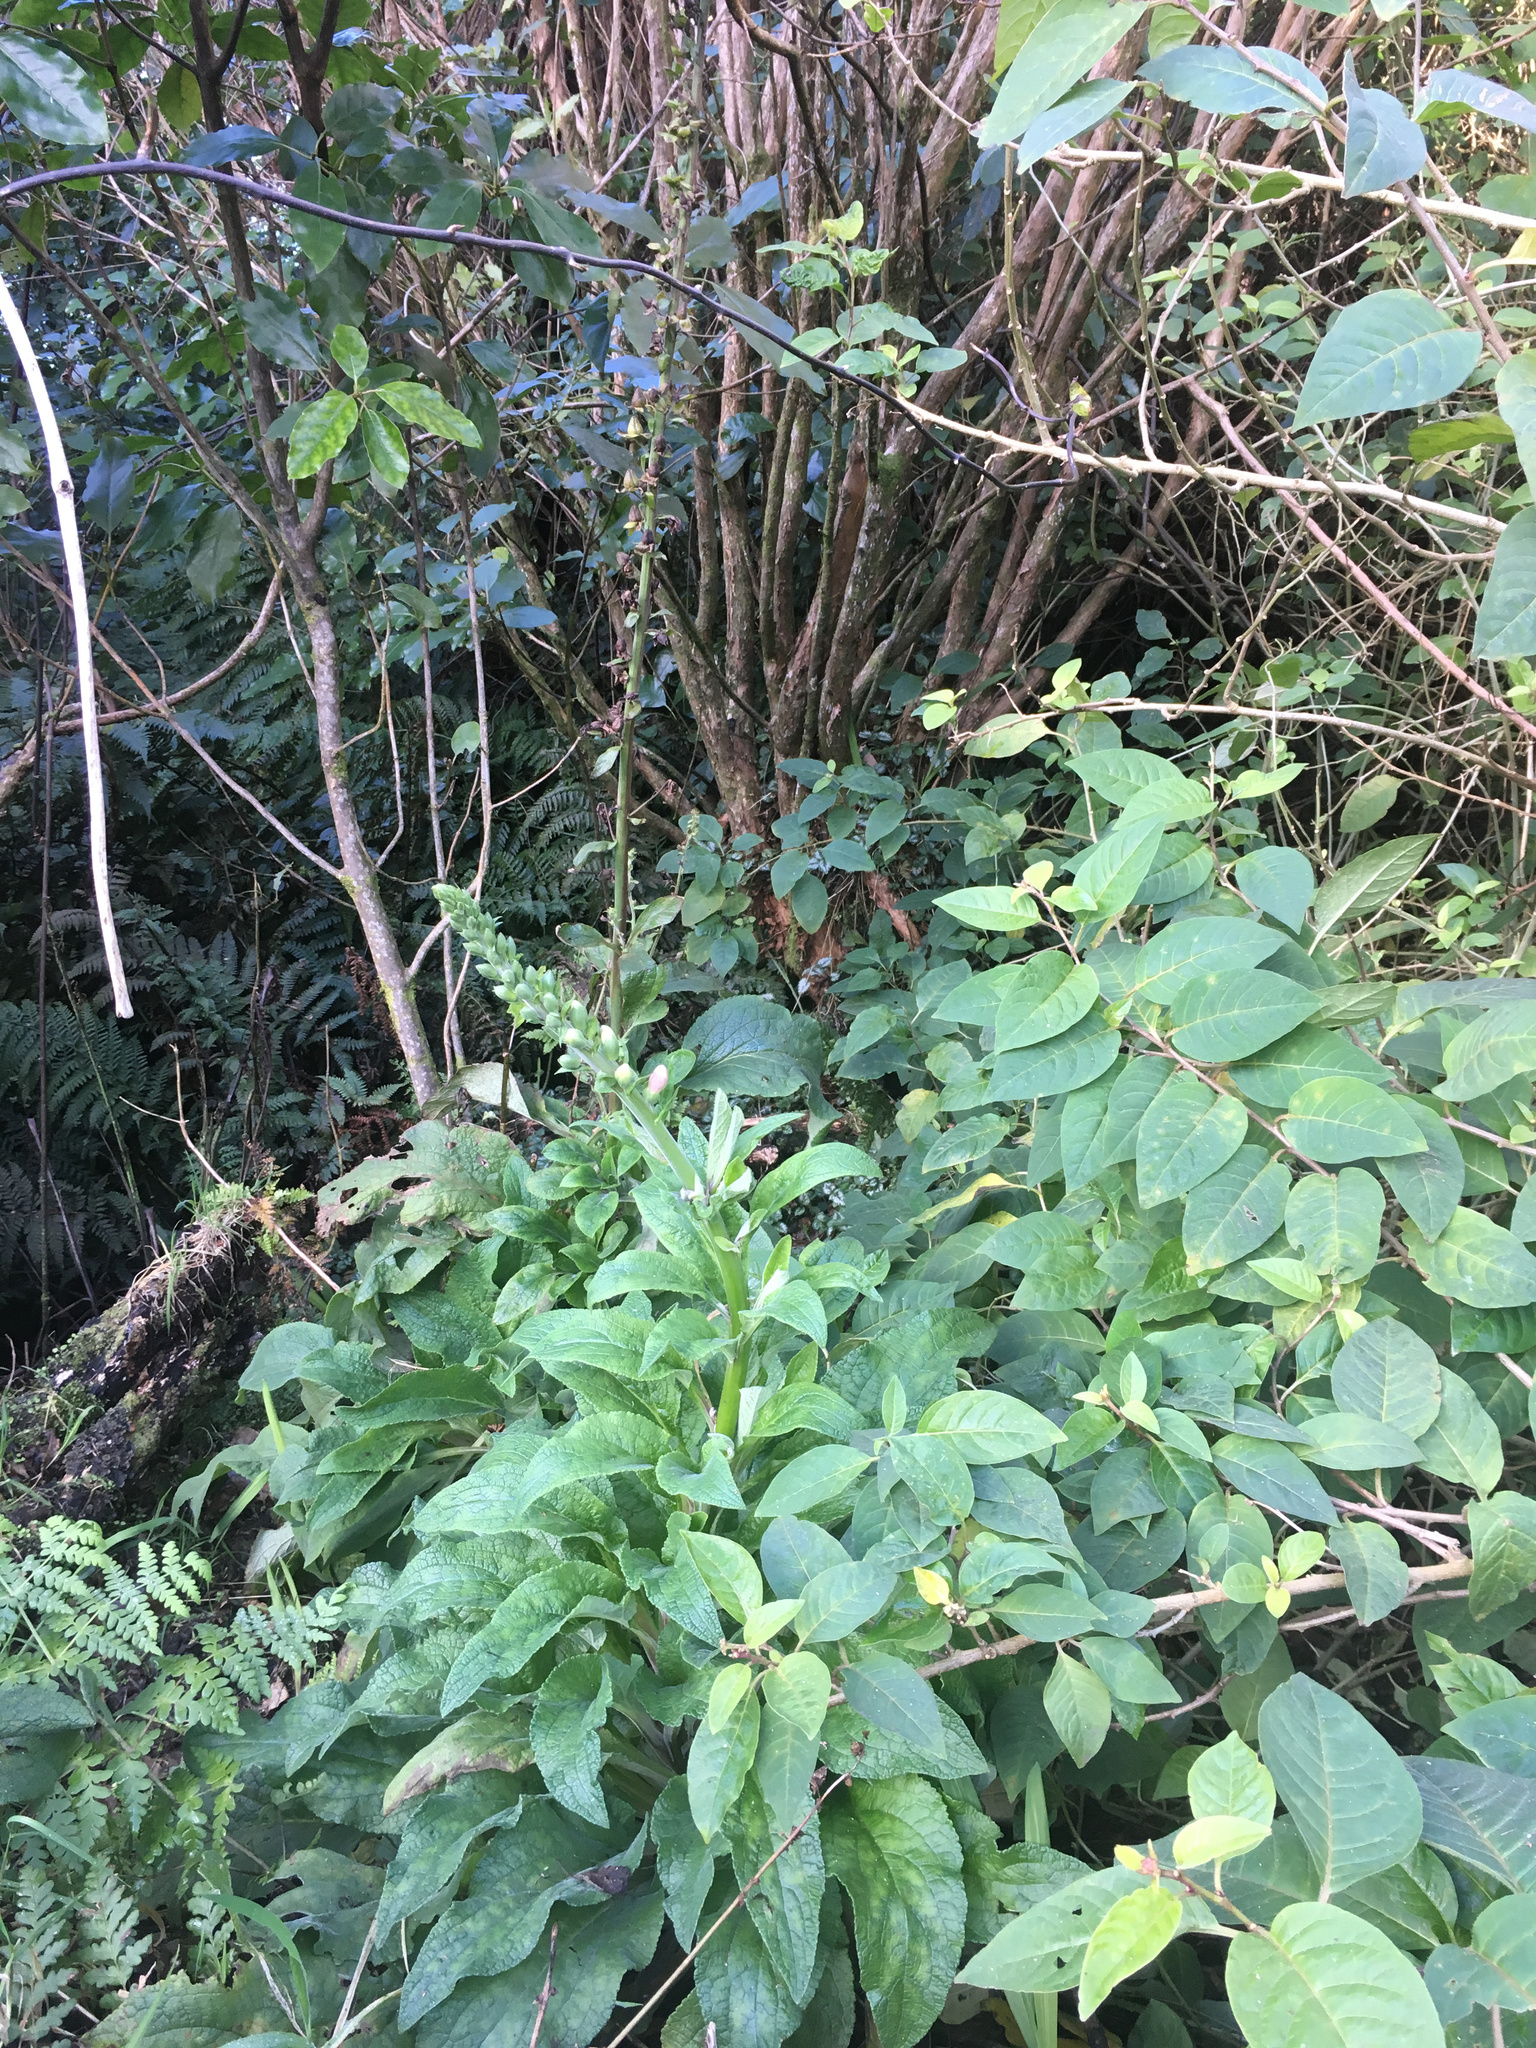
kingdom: Plantae
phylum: Tracheophyta
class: Magnoliopsida
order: Lamiales
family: Plantaginaceae
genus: Digitalis
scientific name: Digitalis purpurea
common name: Foxglove
